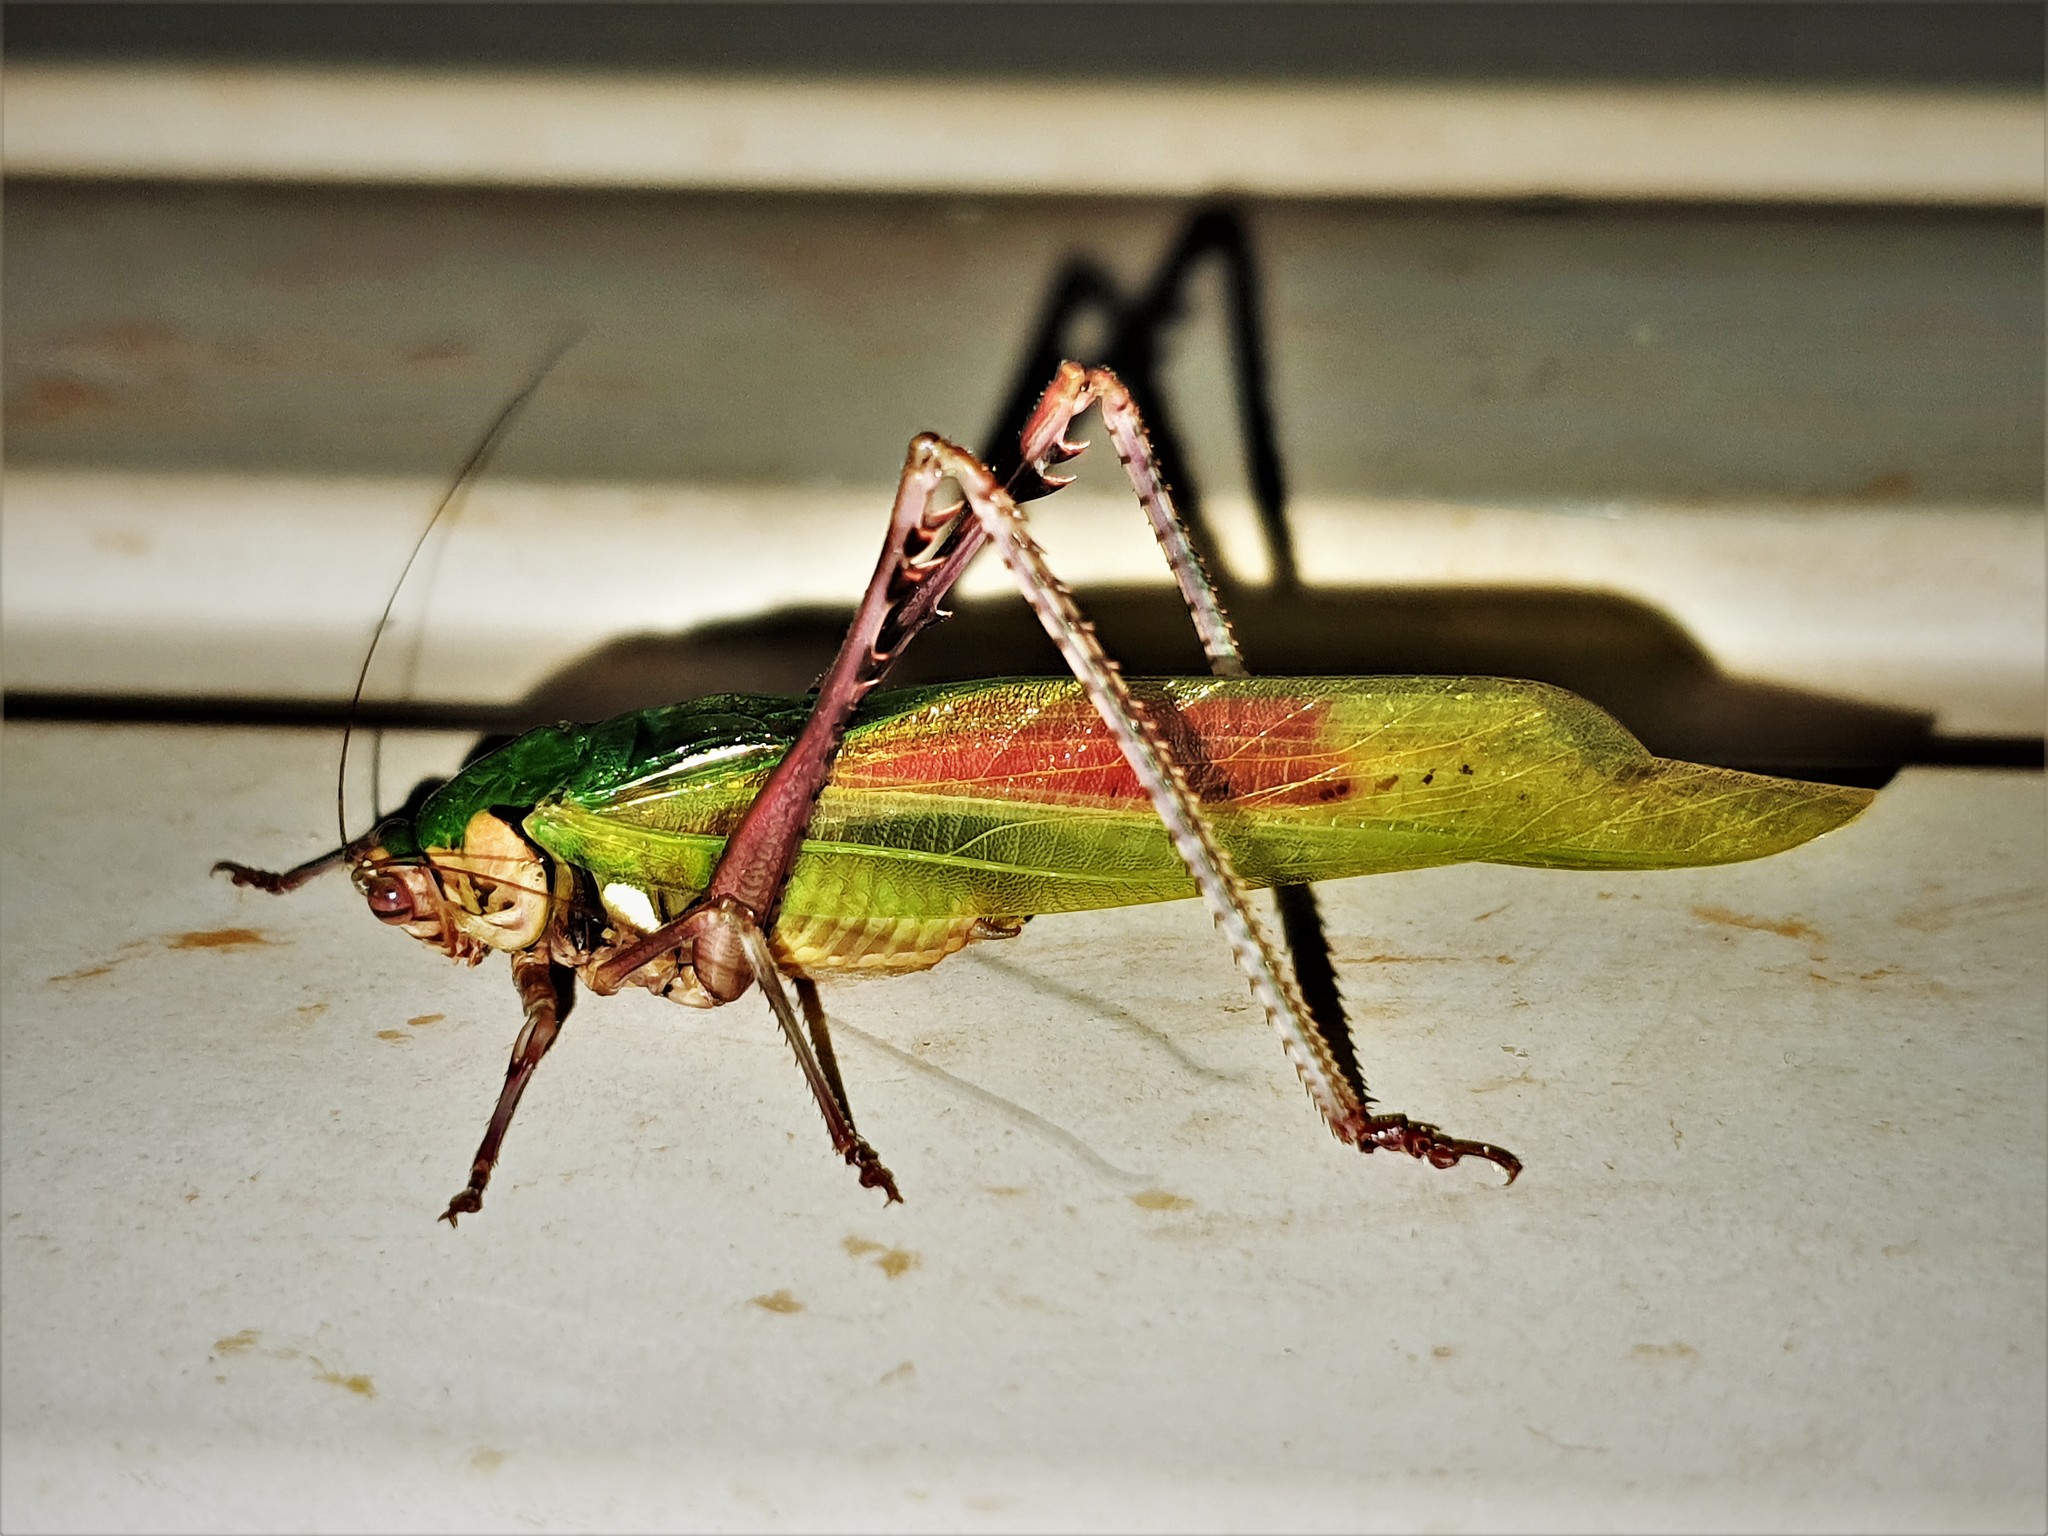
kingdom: Animalia
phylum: Arthropoda
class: Insecta
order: Orthoptera
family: Tettigoniidae
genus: Vellea
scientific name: Vellea cruenta
